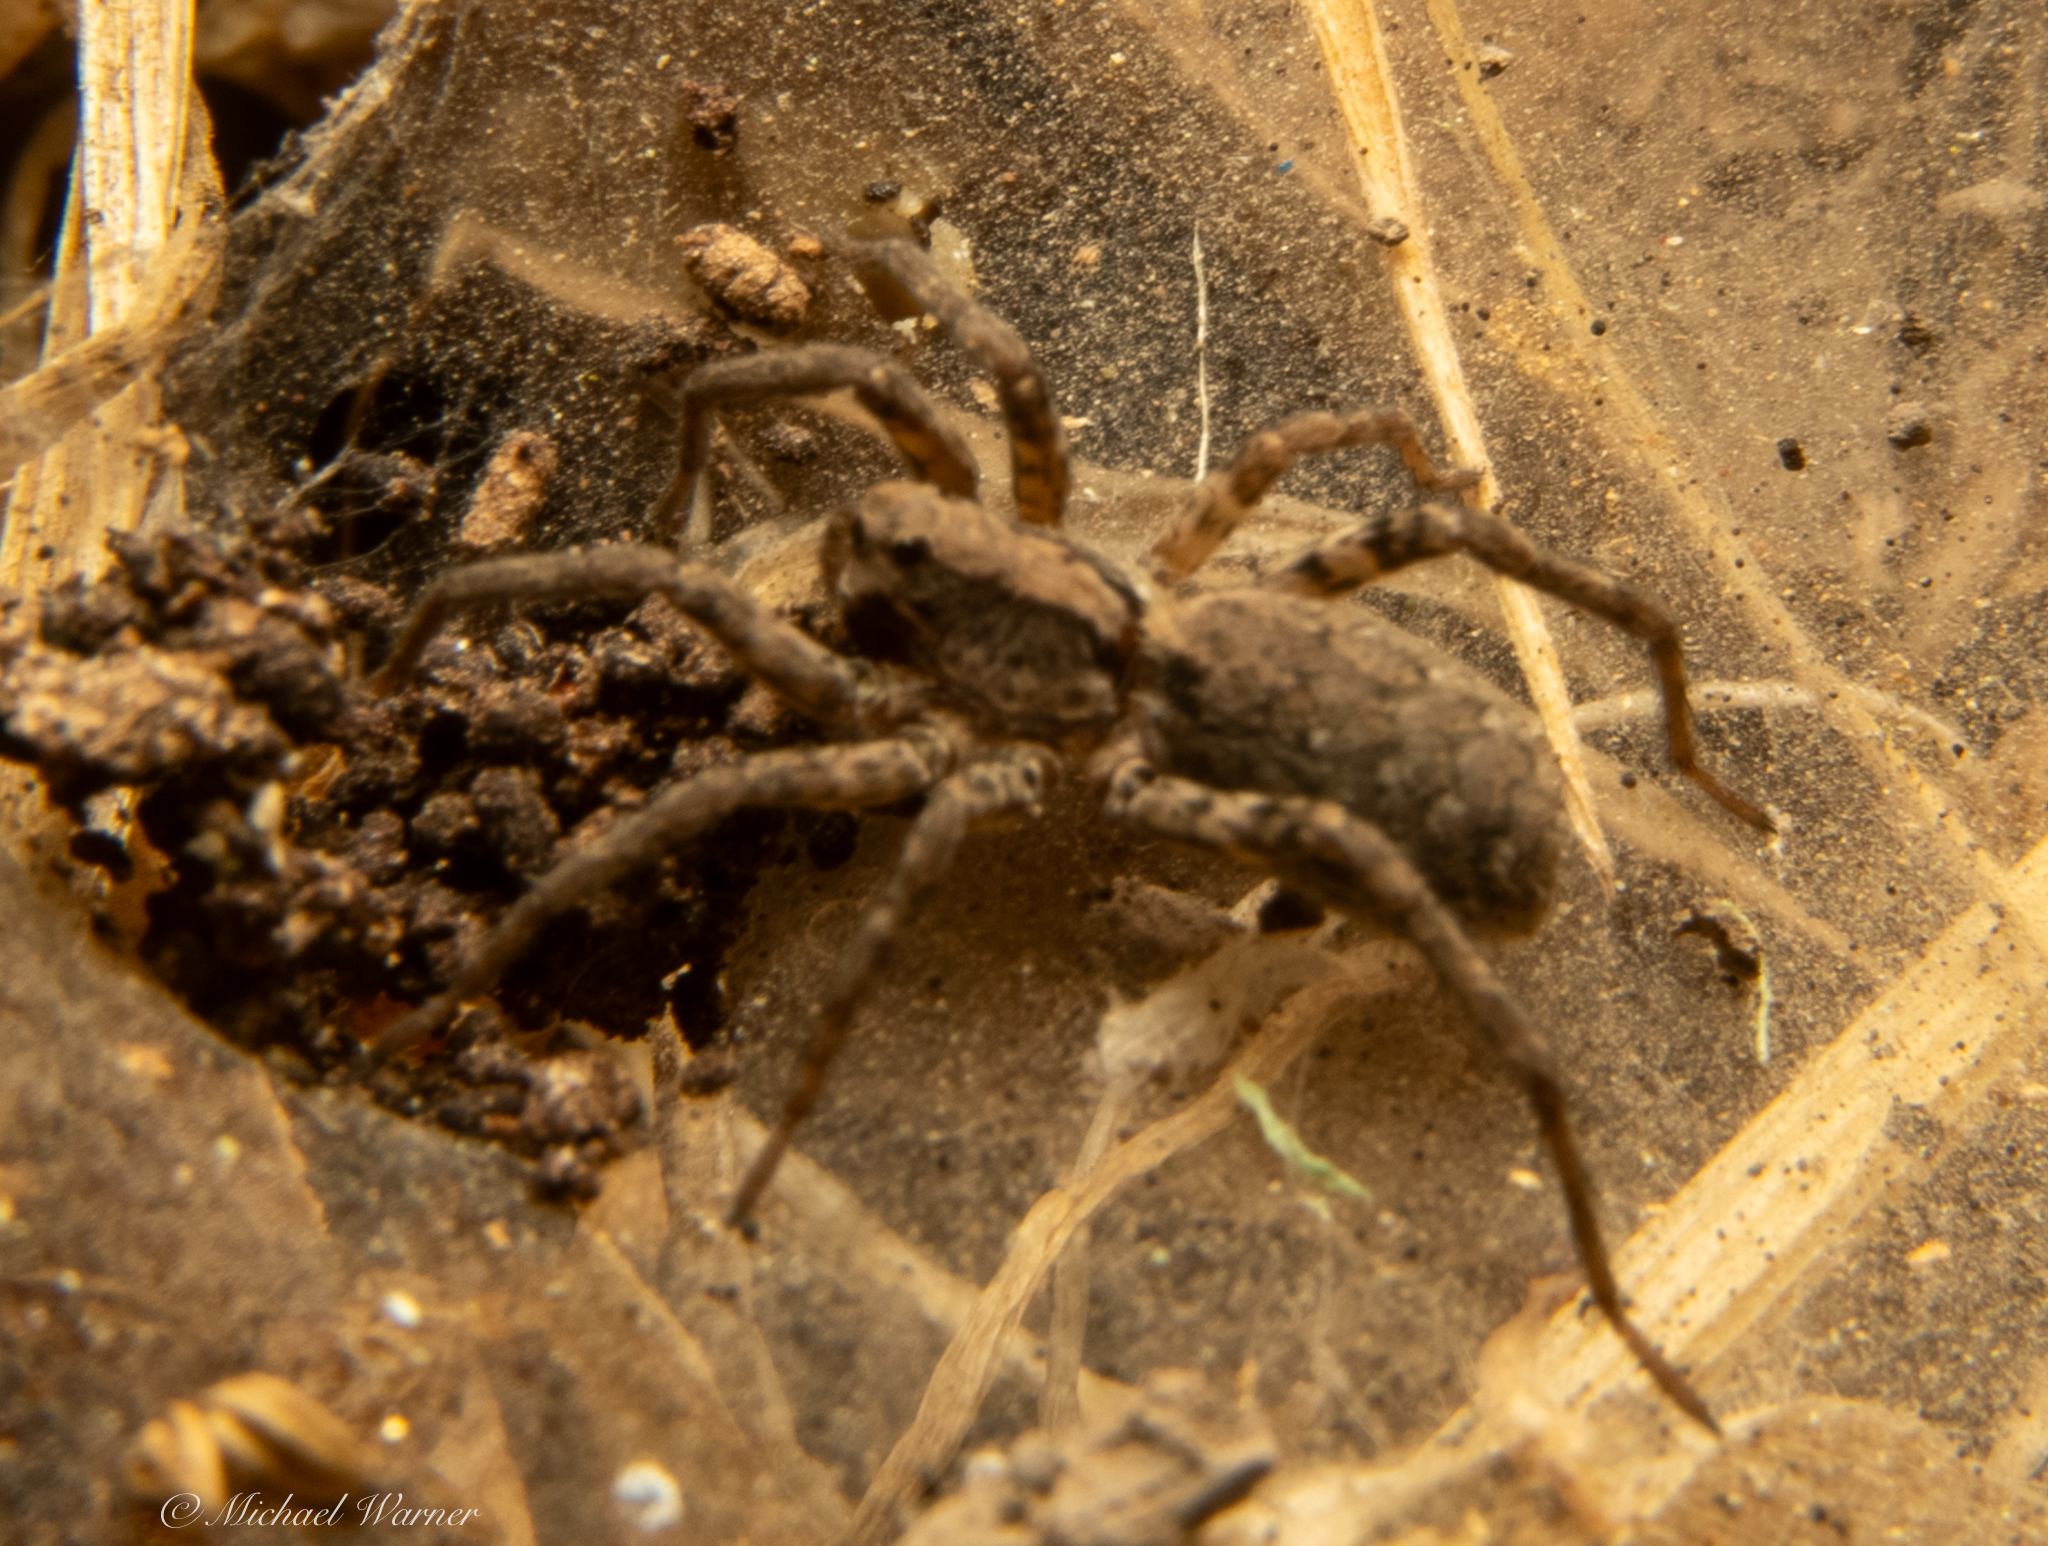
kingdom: Animalia
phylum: Arthropoda
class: Arachnida
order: Araneae
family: Lycosidae
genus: Alopecosa
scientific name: Alopecosa kochi
